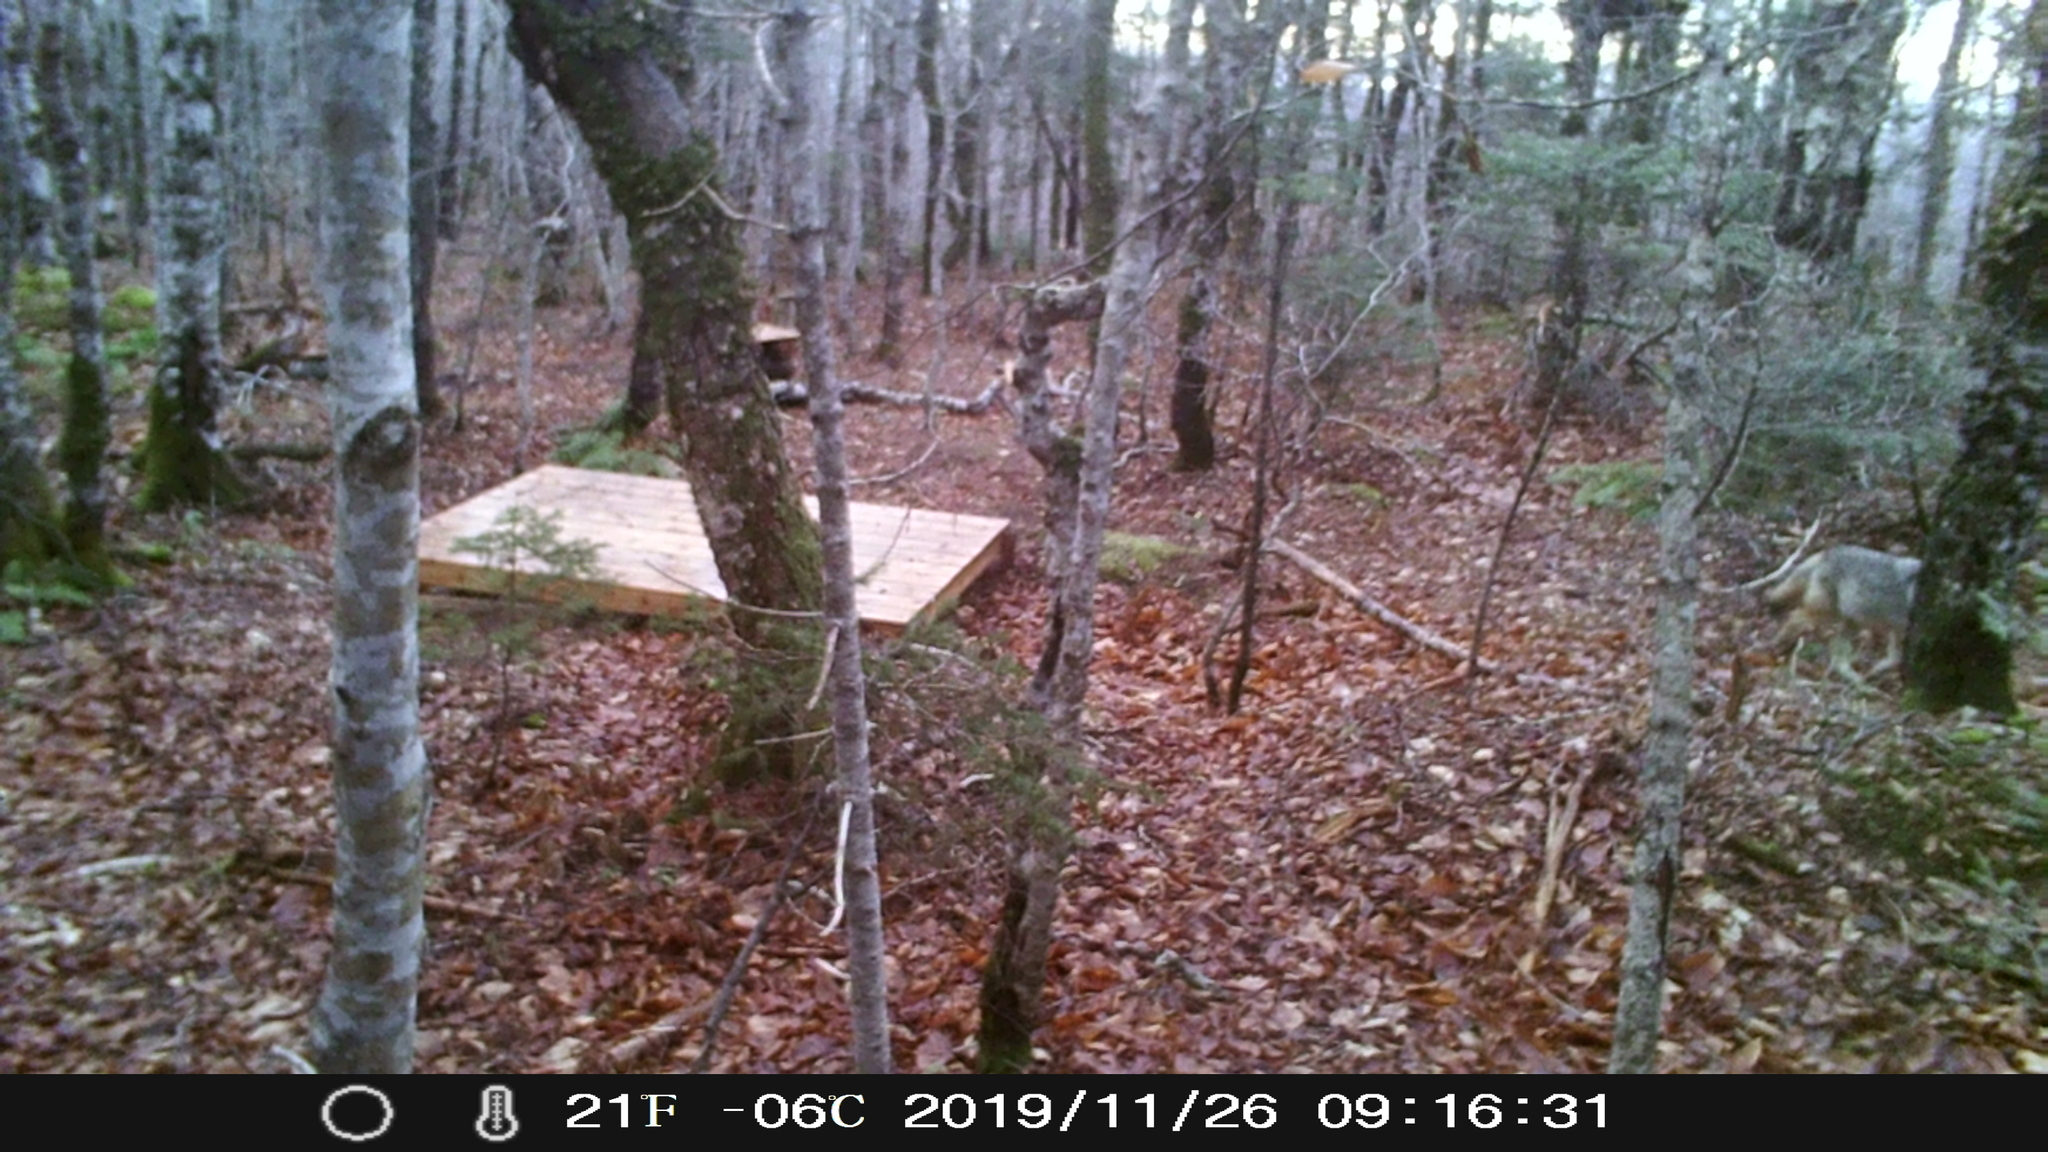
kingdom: Animalia
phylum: Chordata
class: Mammalia
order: Carnivora
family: Canidae
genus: Canis
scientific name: Canis latrans
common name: Coyote
